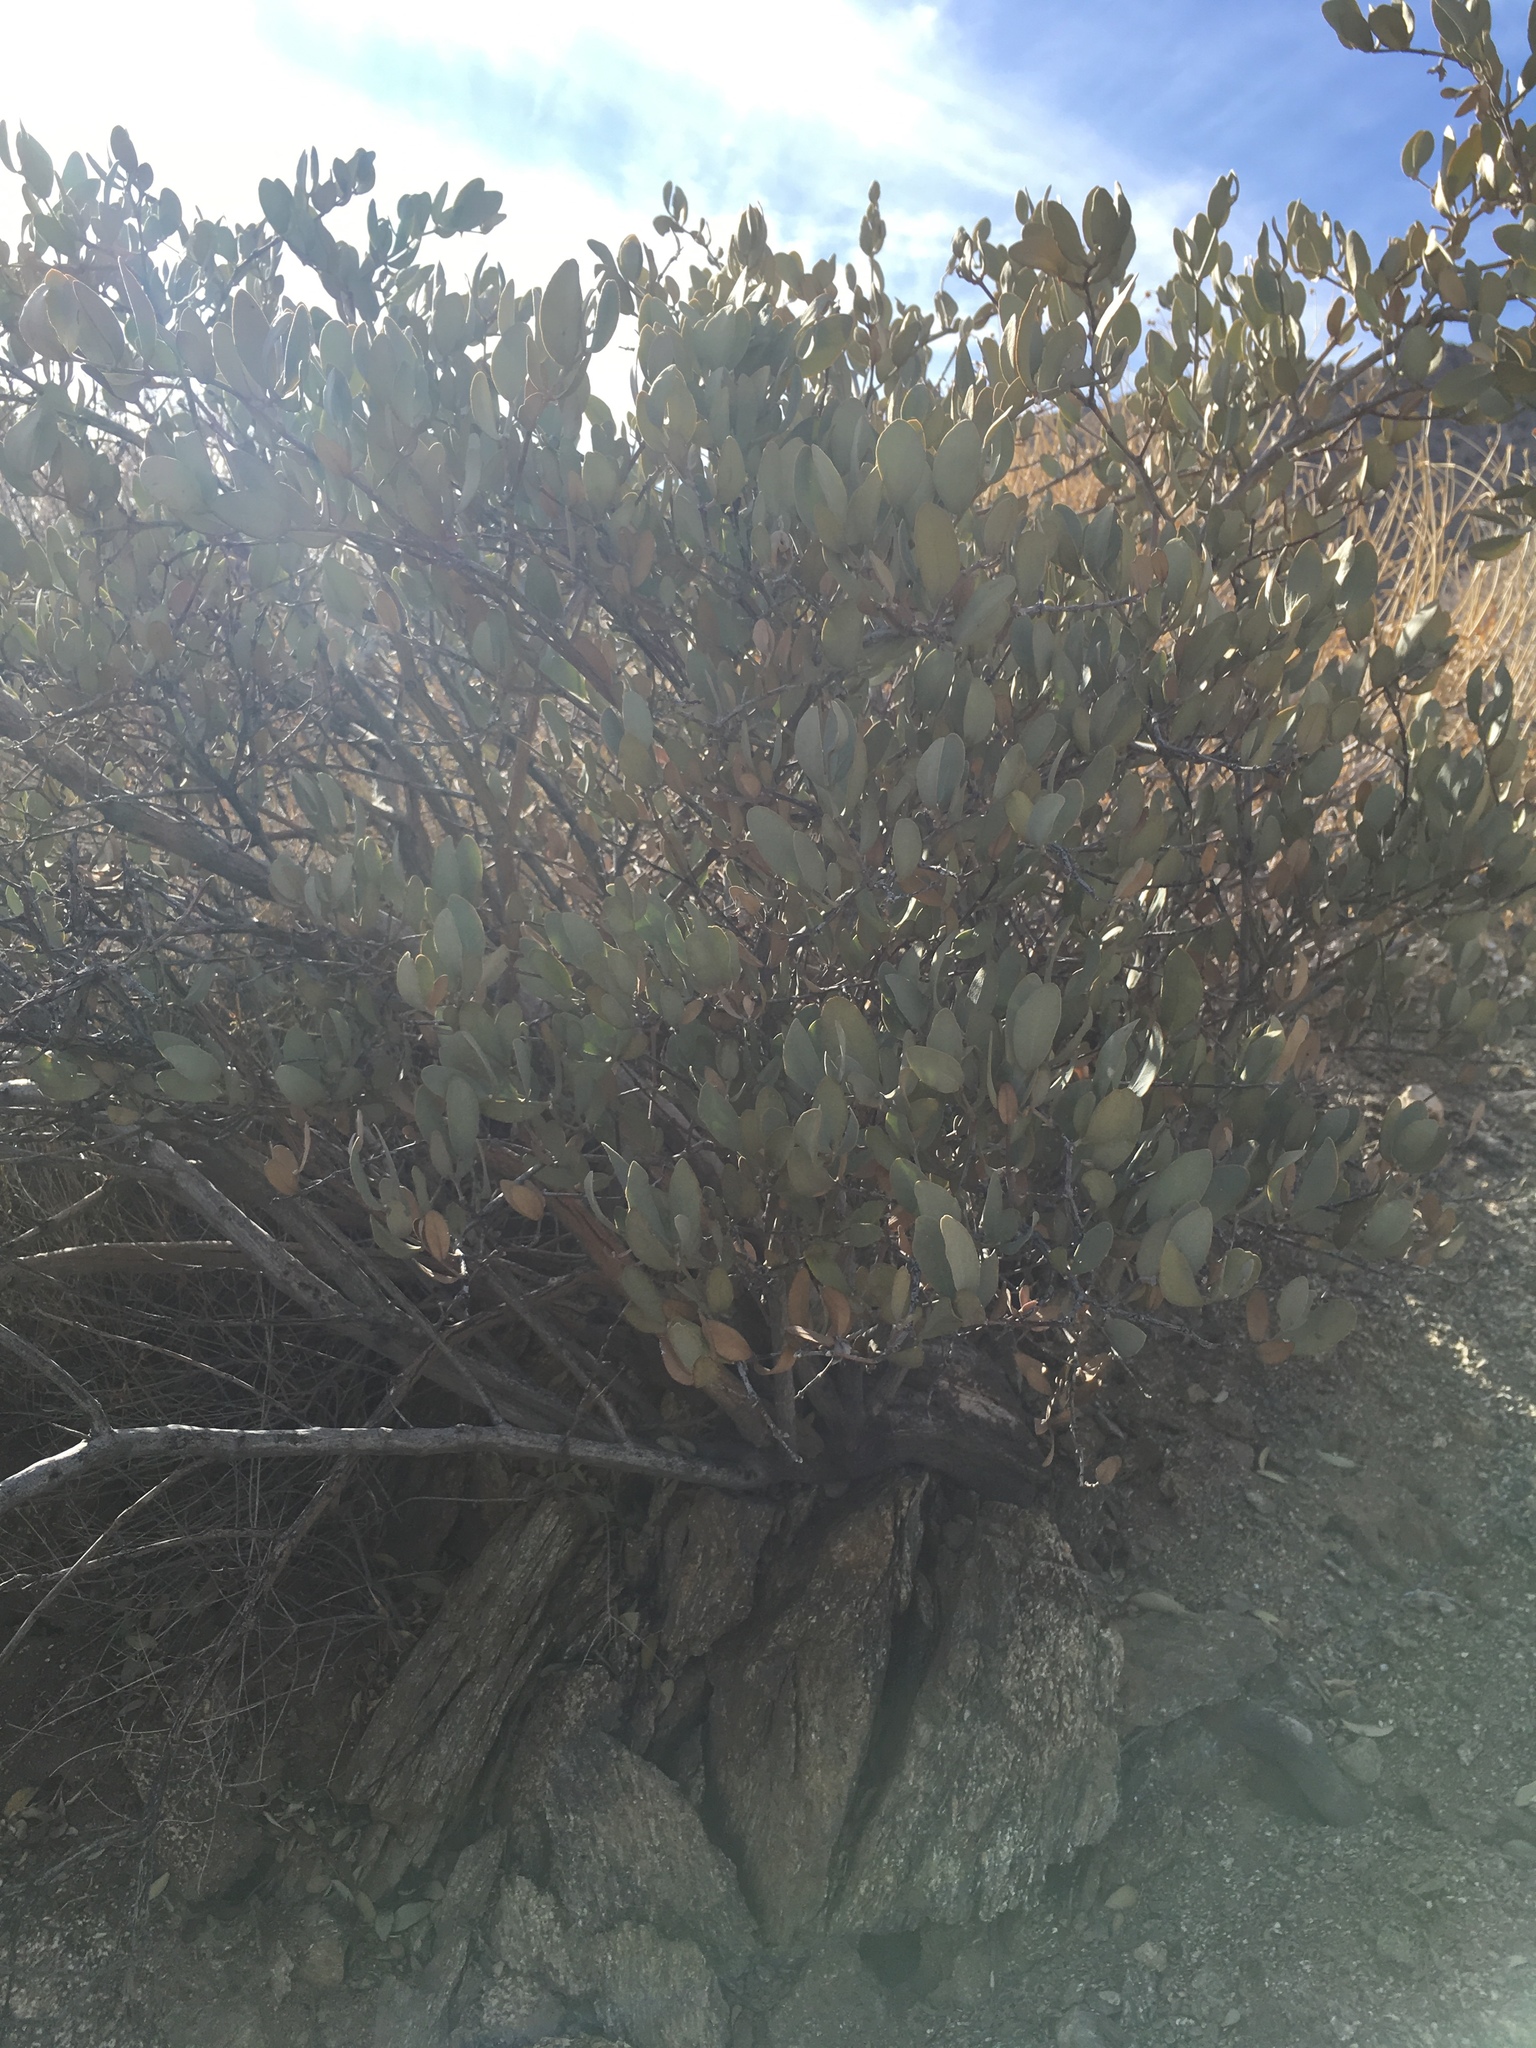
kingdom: Plantae
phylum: Tracheophyta
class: Magnoliopsida
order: Caryophyllales
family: Simmondsiaceae
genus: Simmondsia
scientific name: Simmondsia chinensis
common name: Jojoba
